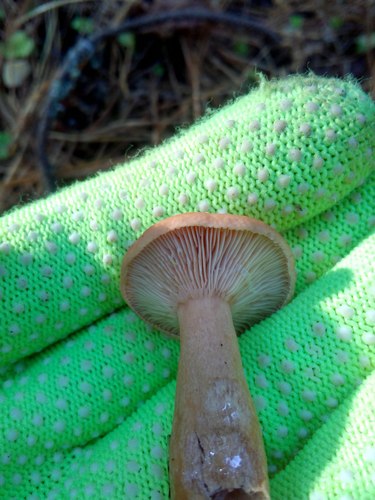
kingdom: Fungi
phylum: Basidiomycota
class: Agaricomycetes
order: Russulales
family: Russulaceae
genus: Lactarius
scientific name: Lactarius
